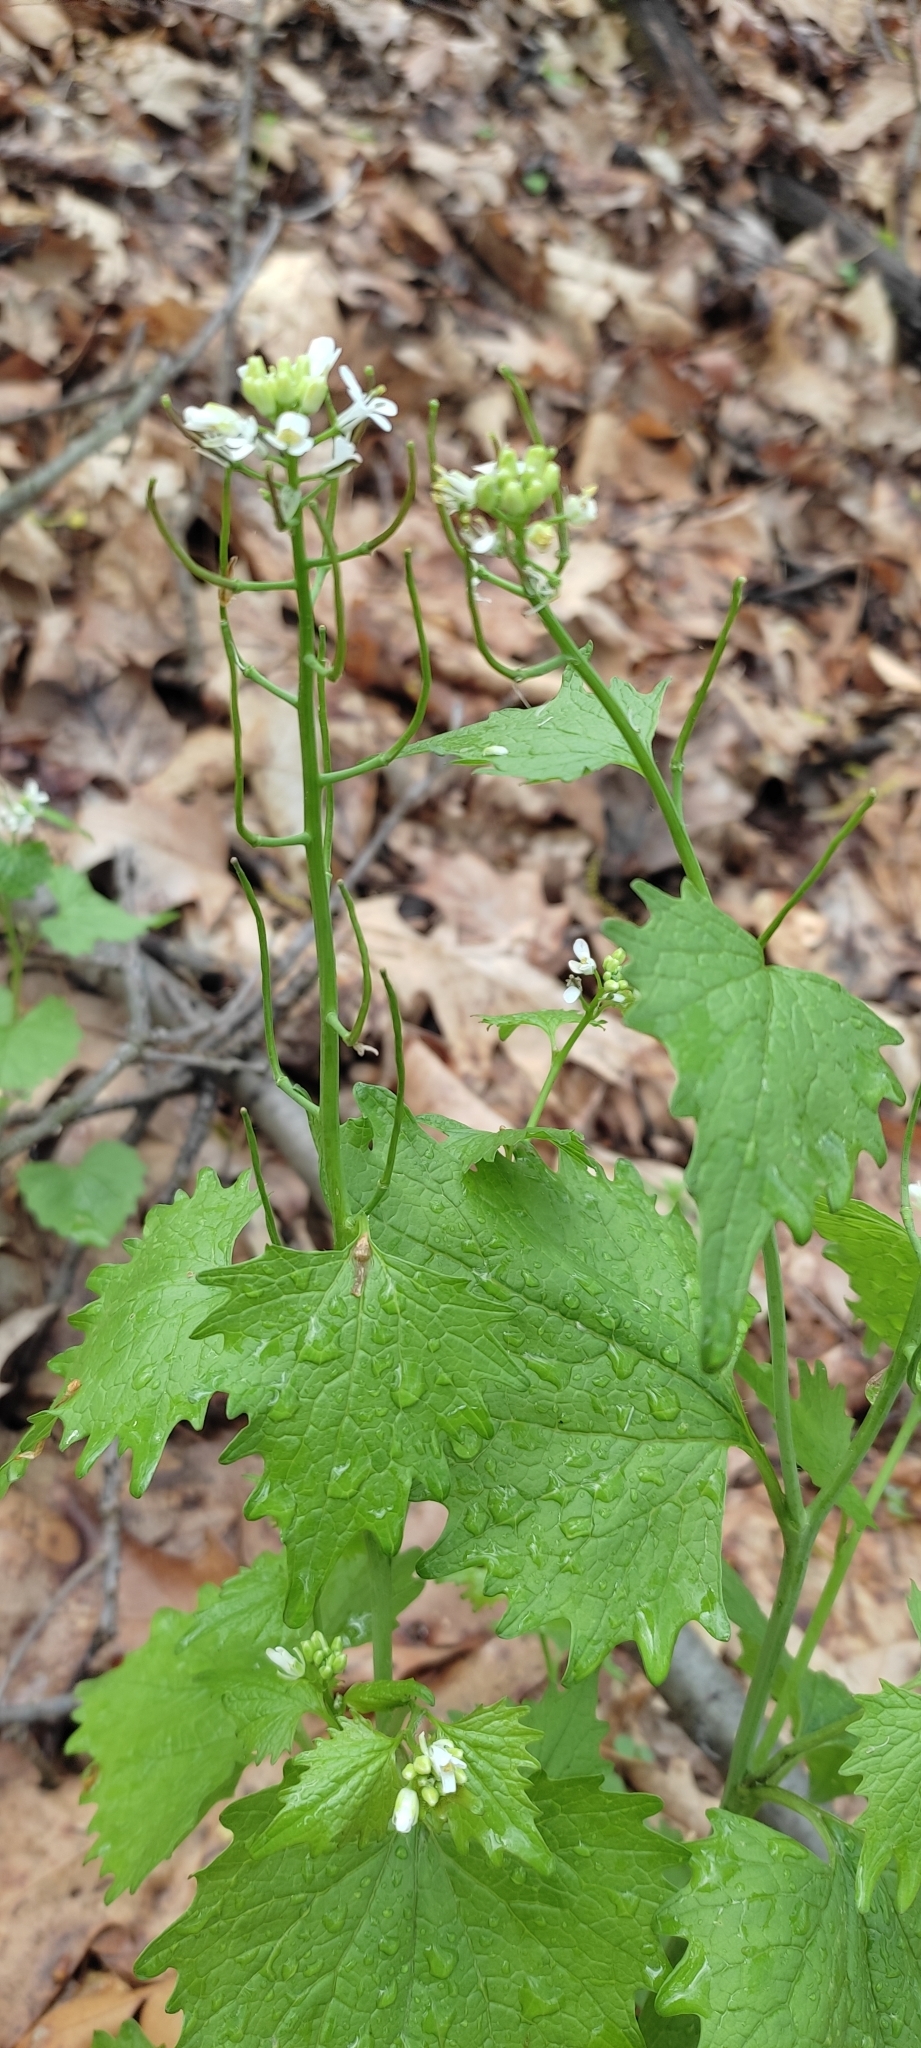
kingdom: Plantae
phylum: Tracheophyta
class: Magnoliopsida
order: Brassicales
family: Brassicaceae
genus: Alliaria
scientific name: Alliaria petiolata
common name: Garlic mustard
